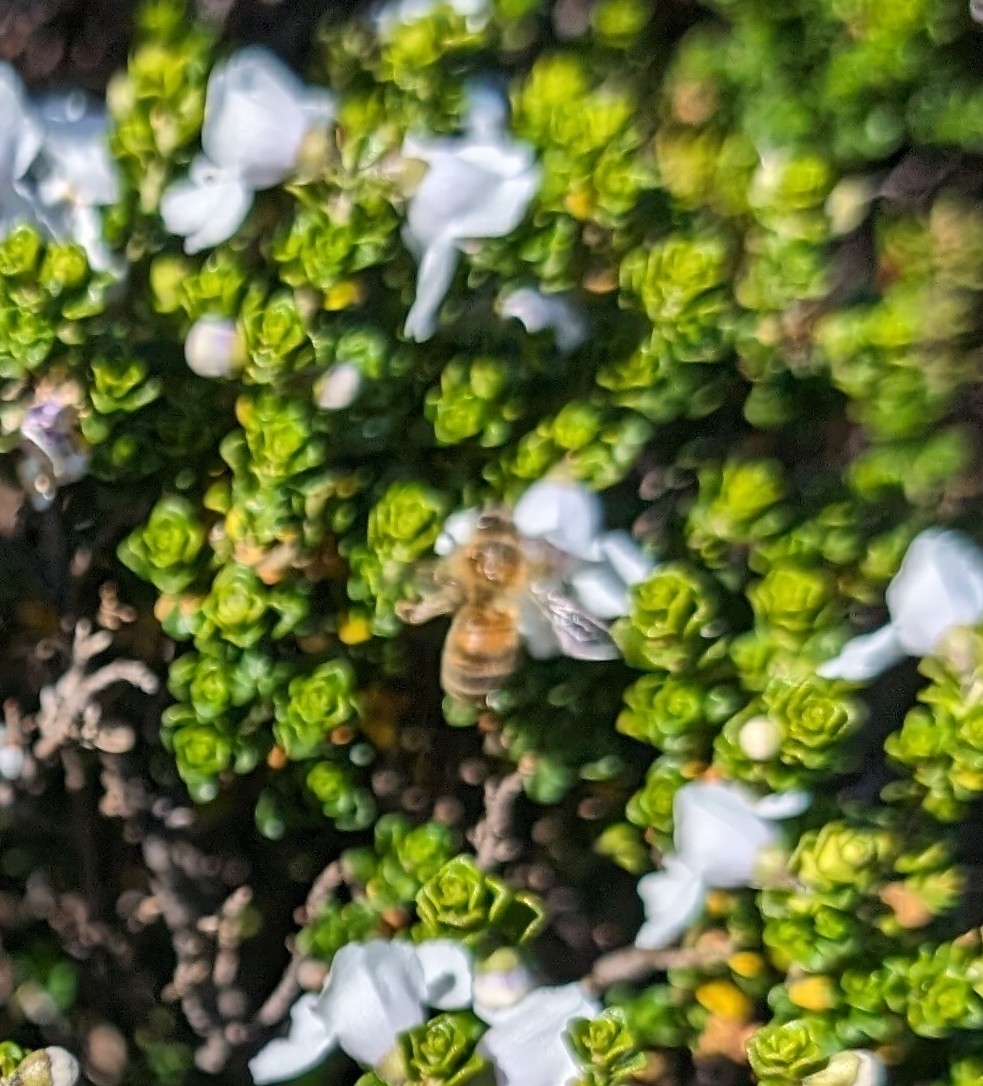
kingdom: Animalia
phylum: Arthropoda
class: Insecta
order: Hymenoptera
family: Apidae
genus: Apis
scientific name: Apis mellifera
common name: Honey bee
